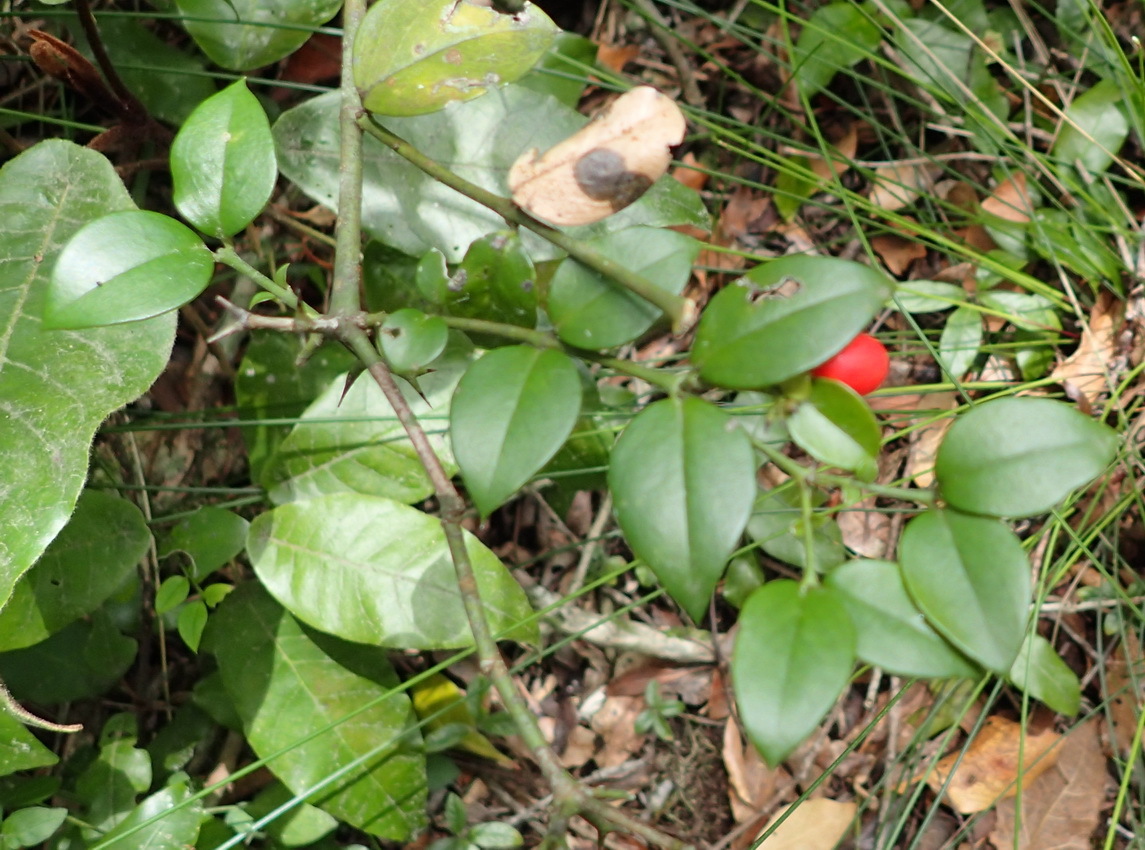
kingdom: Plantae
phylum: Tracheophyta
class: Magnoliopsida
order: Gentianales
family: Apocynaceae
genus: Carissa
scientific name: Carissa bispinosa
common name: Forest num-num
